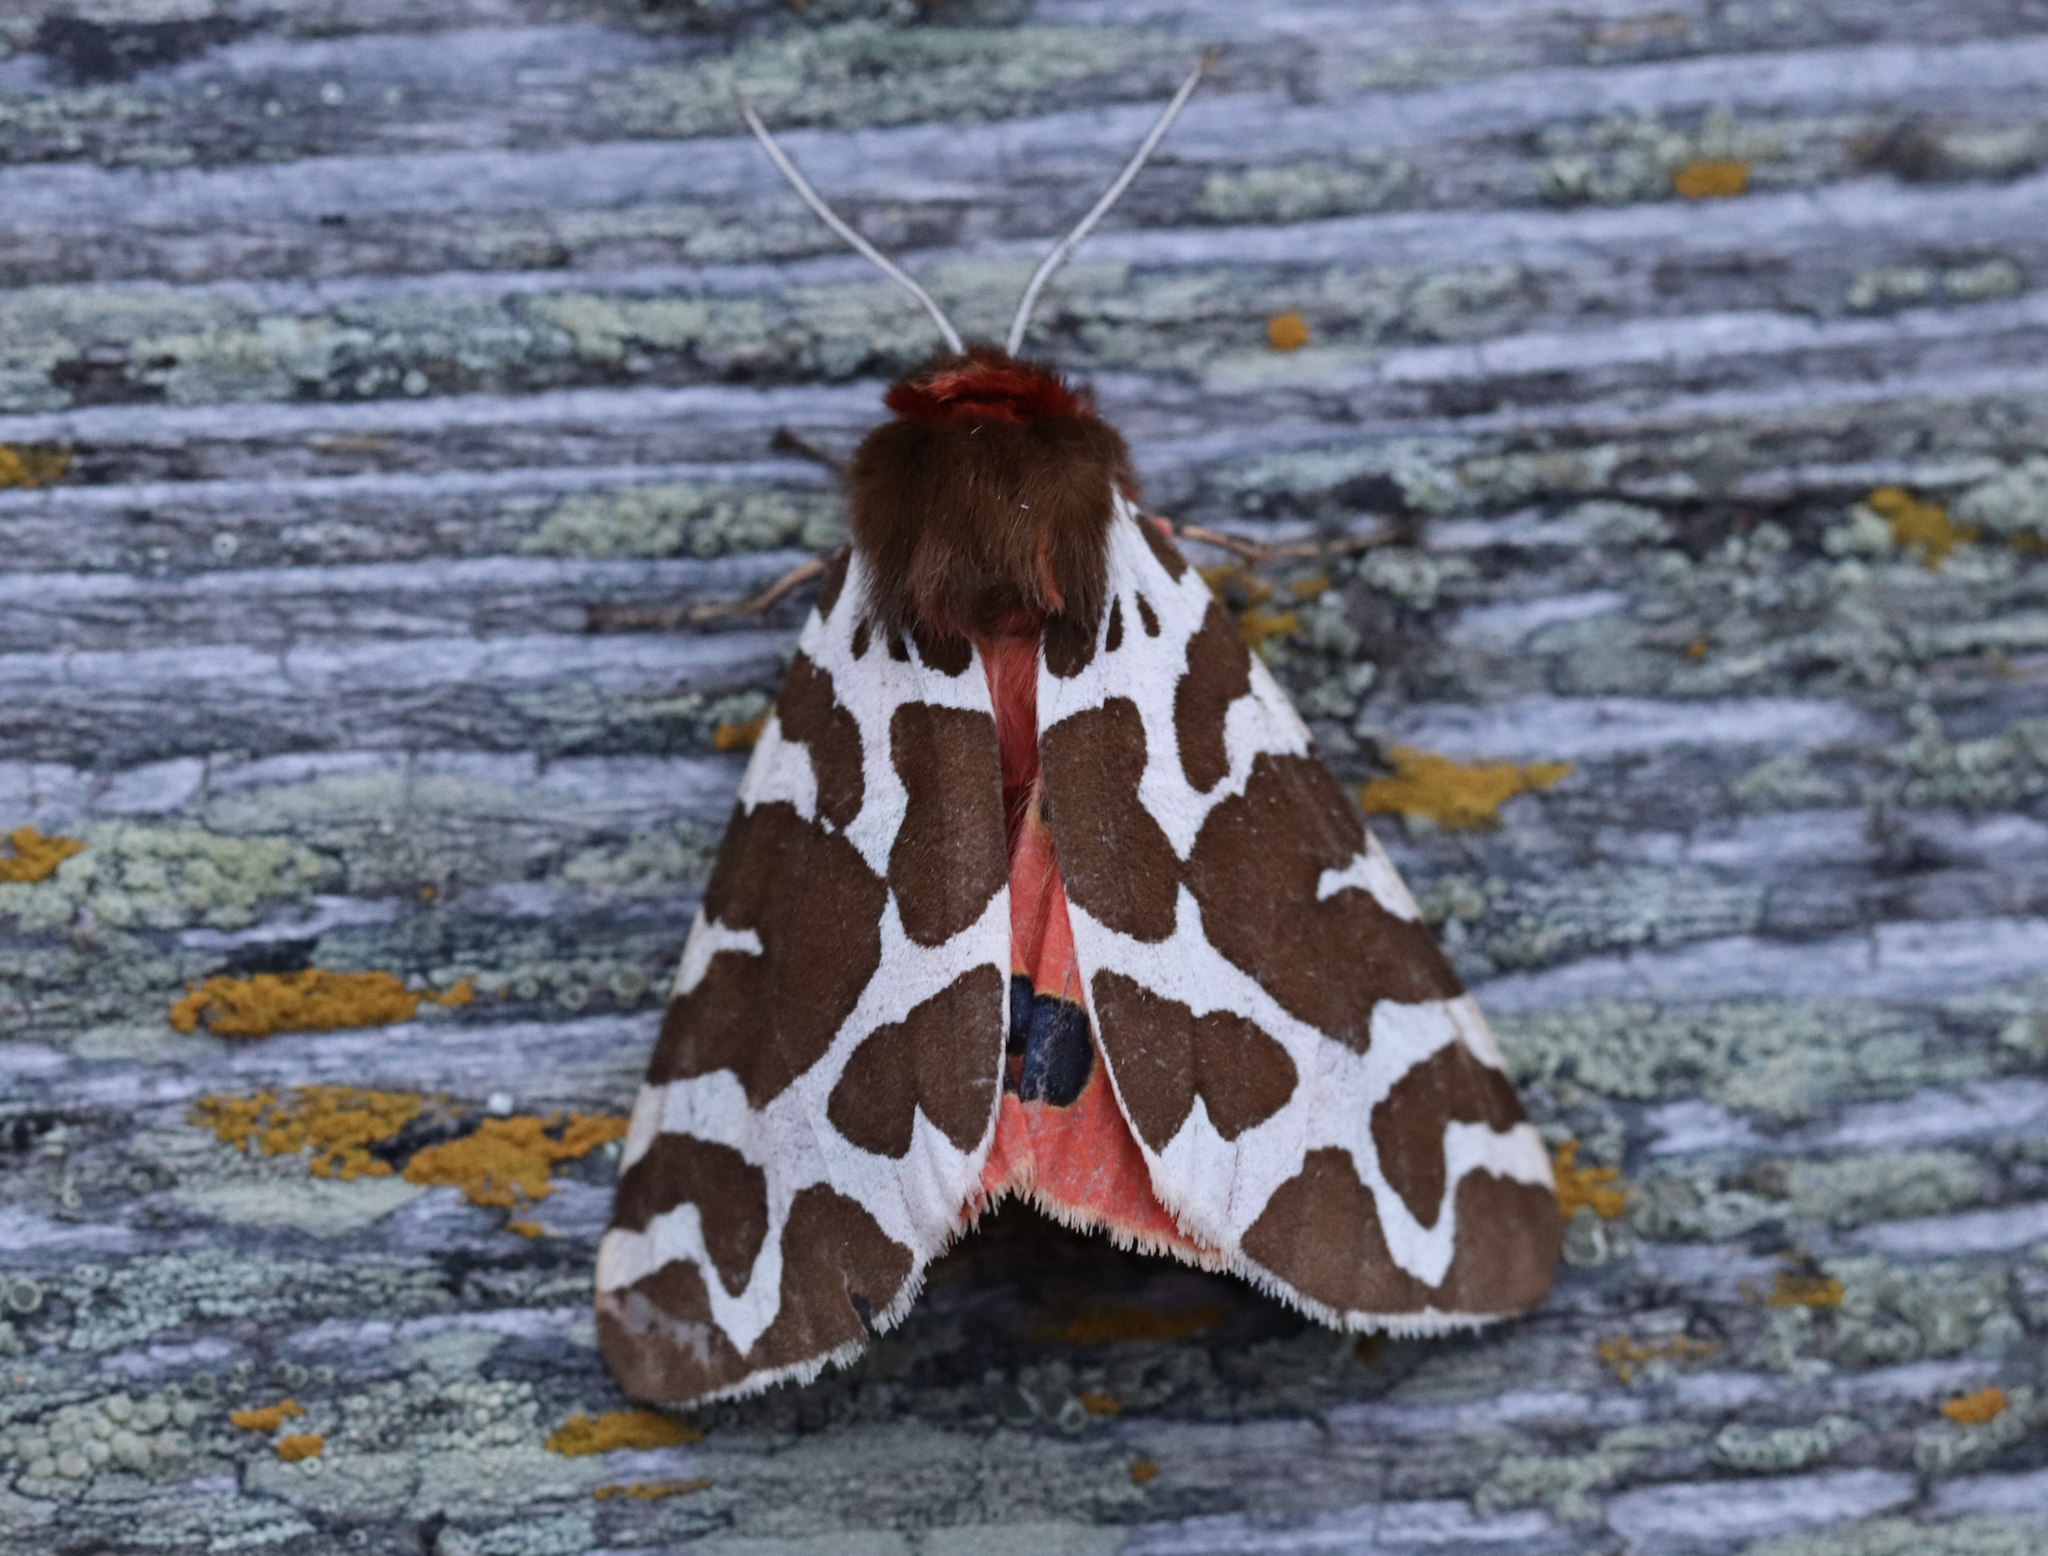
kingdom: Animalia
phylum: Arthropoda
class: Insecta
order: Lepidoptera
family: Erebidae
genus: Arctia
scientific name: Arctia caja
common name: Garden tiger
